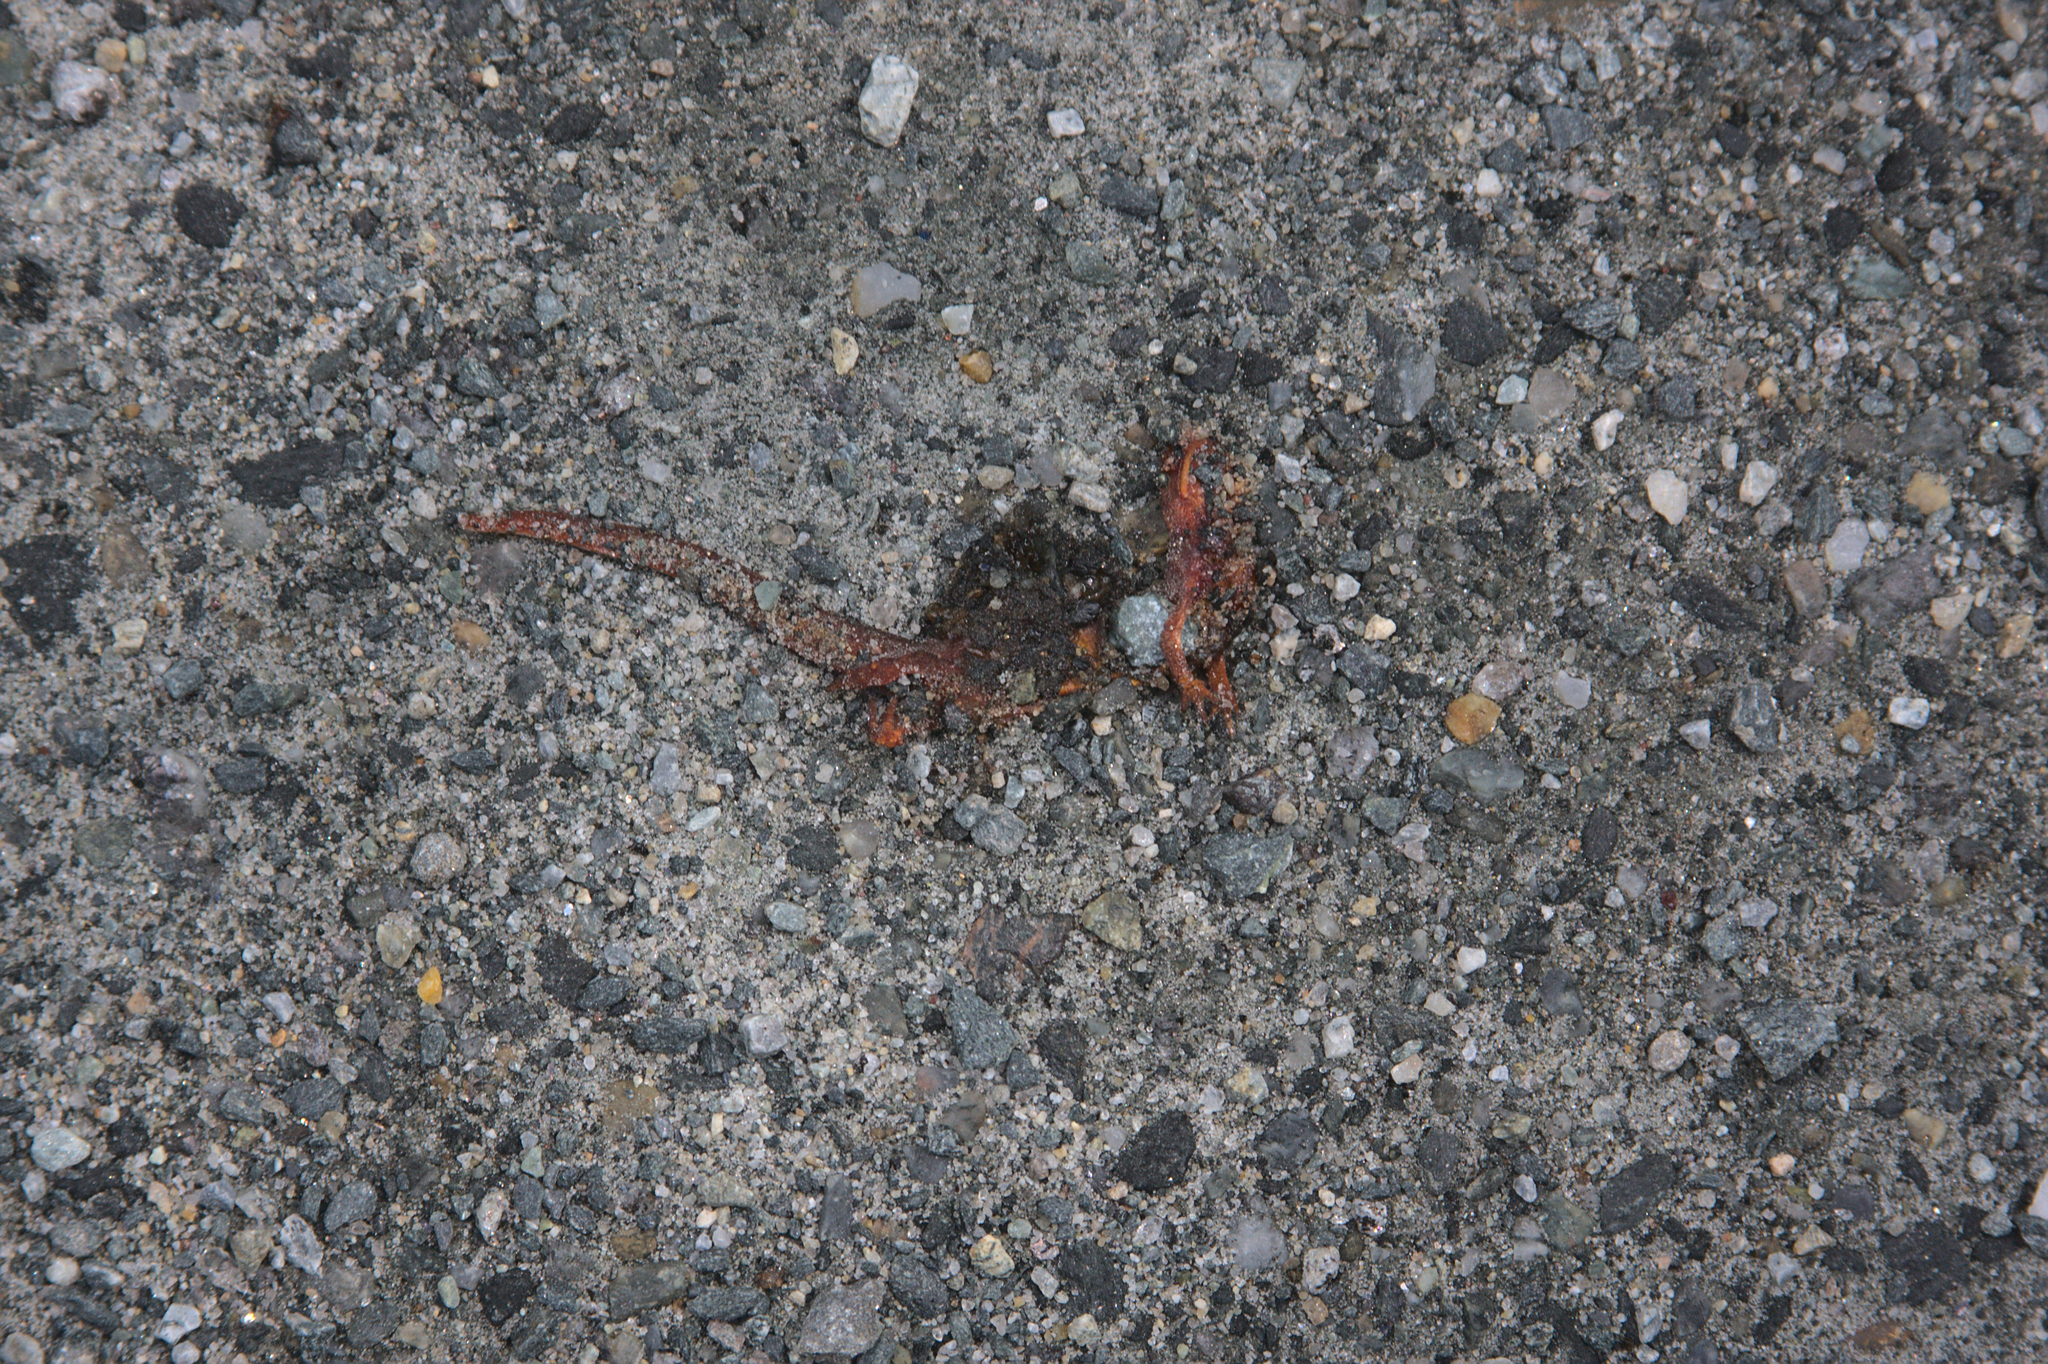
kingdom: Animalia
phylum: Chordata
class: Amphibia
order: Caudata
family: Salamandridae
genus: Notophthalmus
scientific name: Notophthalmus viridescens
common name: Eastern newt
